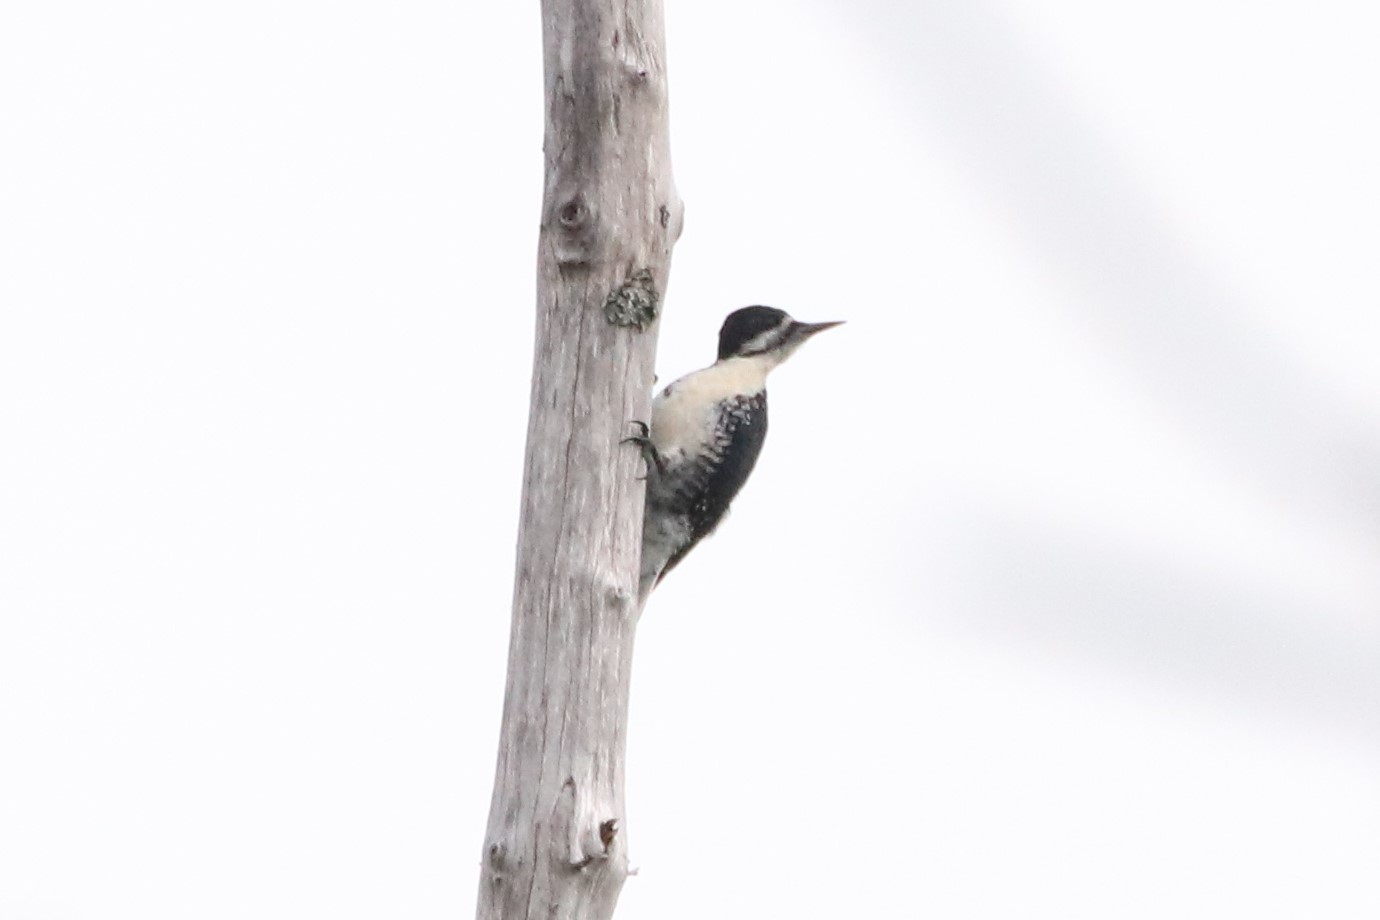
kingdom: Animalia
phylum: Chordata
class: Aves
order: Piciformes
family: Picidae
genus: Picoides
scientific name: Picoides arcticus
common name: Black-backed woodpecker
